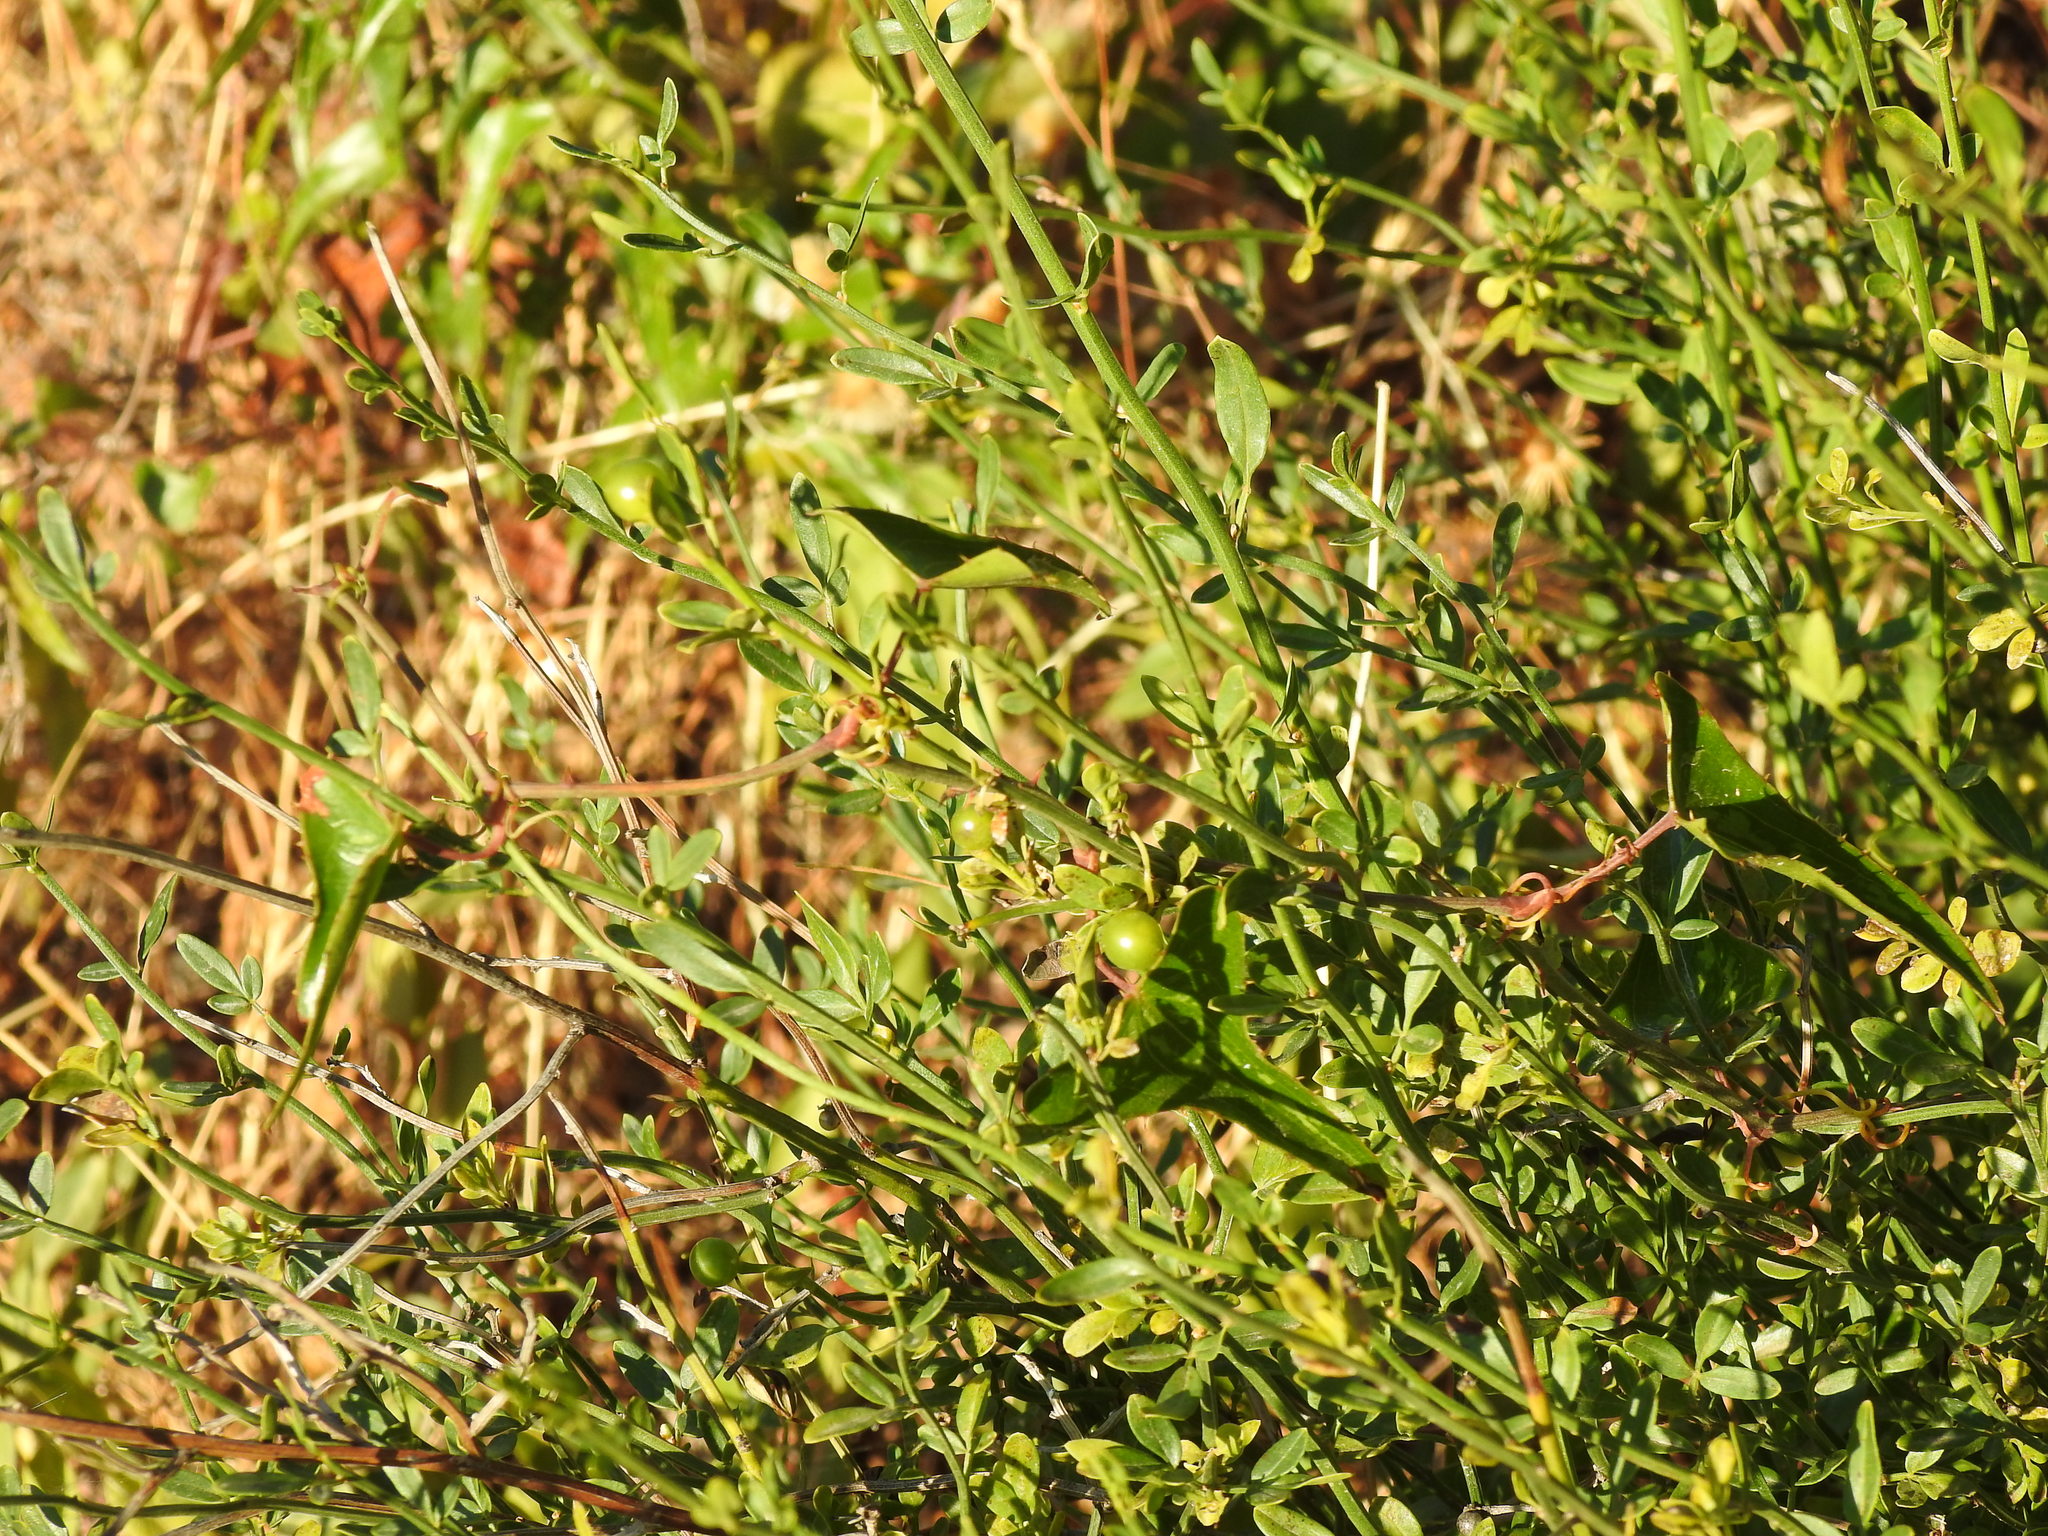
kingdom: Plantae
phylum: Tracheophyta
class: Magnoliopsida
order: Lamiales
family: Oleaceae
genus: Chrysojasminum
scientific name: Chrysojasminum fruticans
